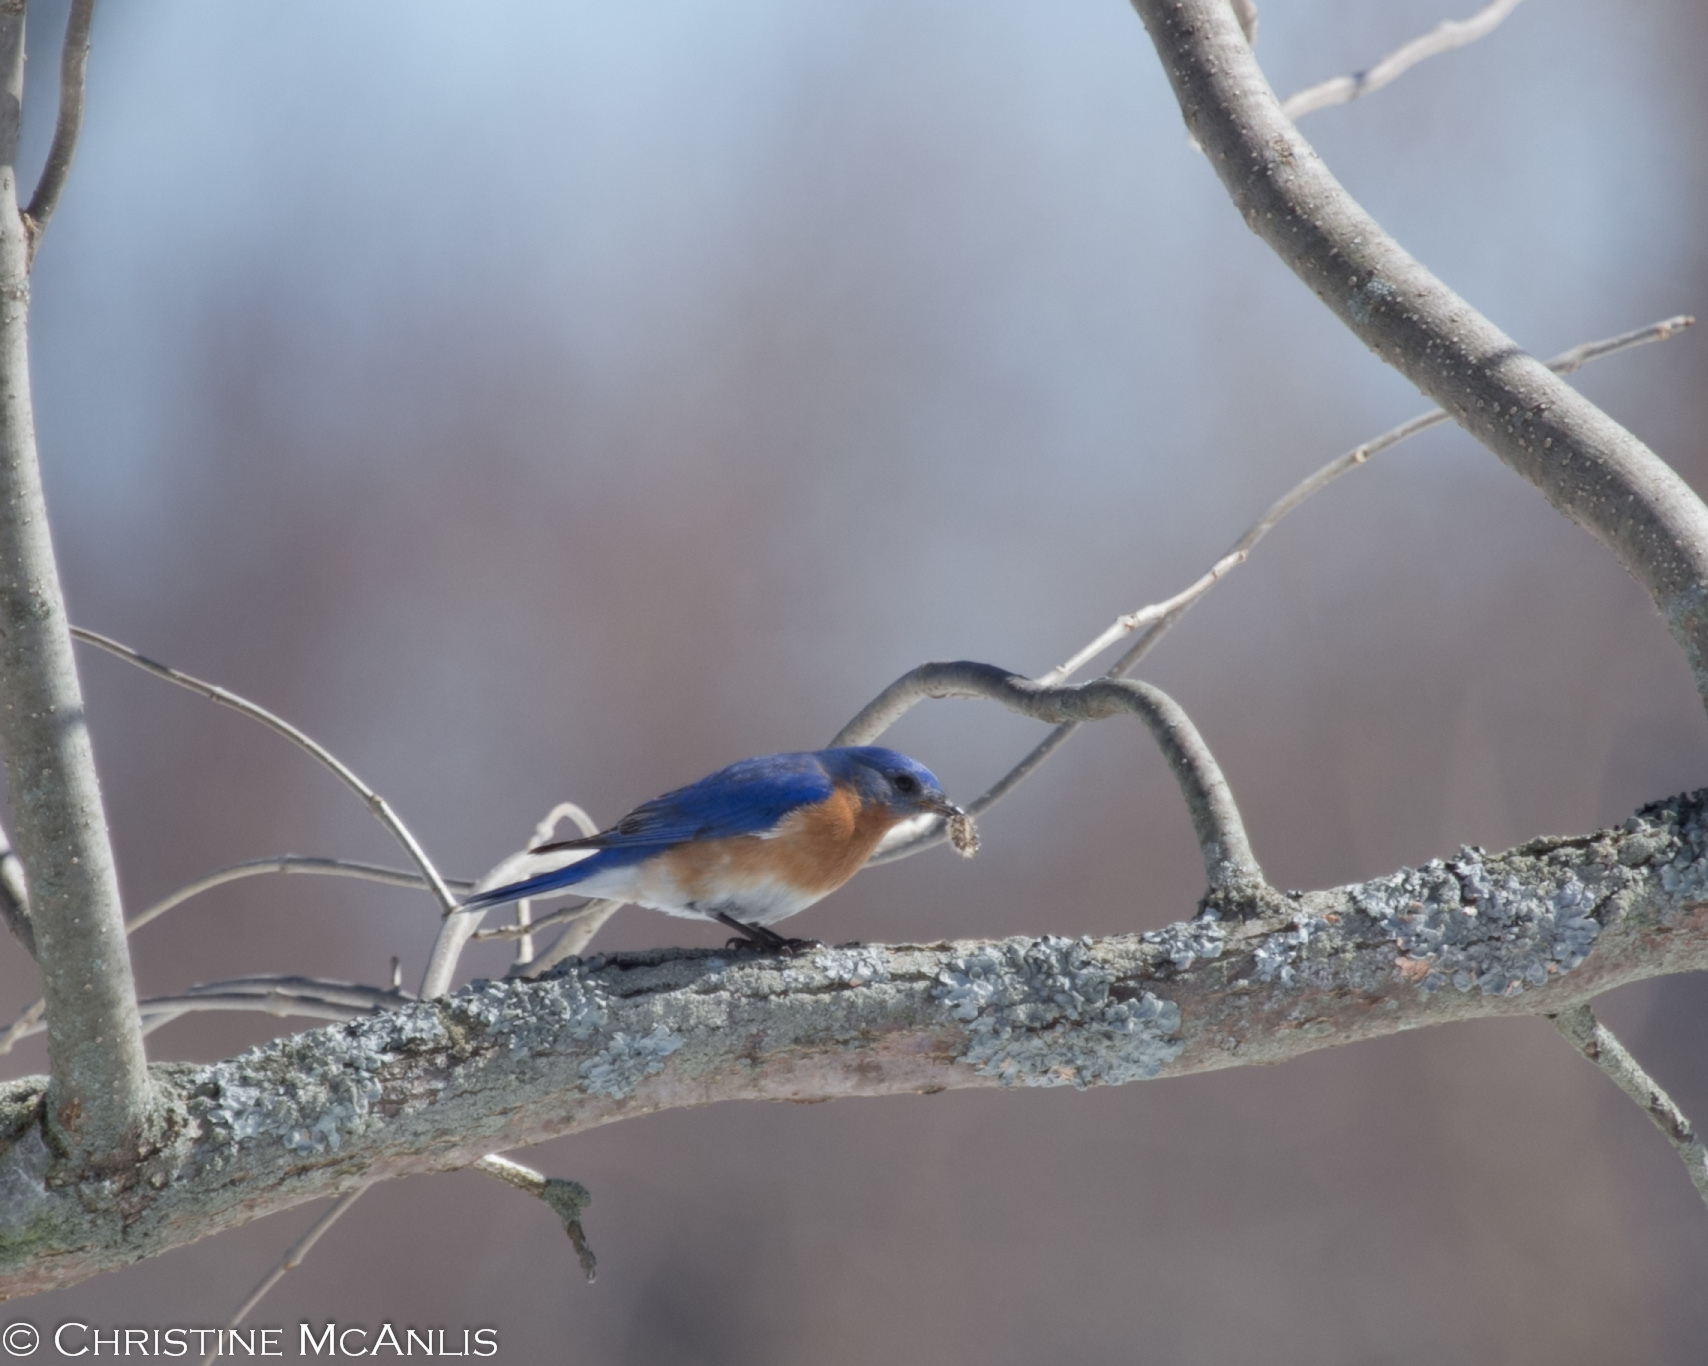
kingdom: Animalia
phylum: Chordata
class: Aves
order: Passeriformes
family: Turdidae
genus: Sialia
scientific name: Sialia sialis
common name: Eastern bluebird
